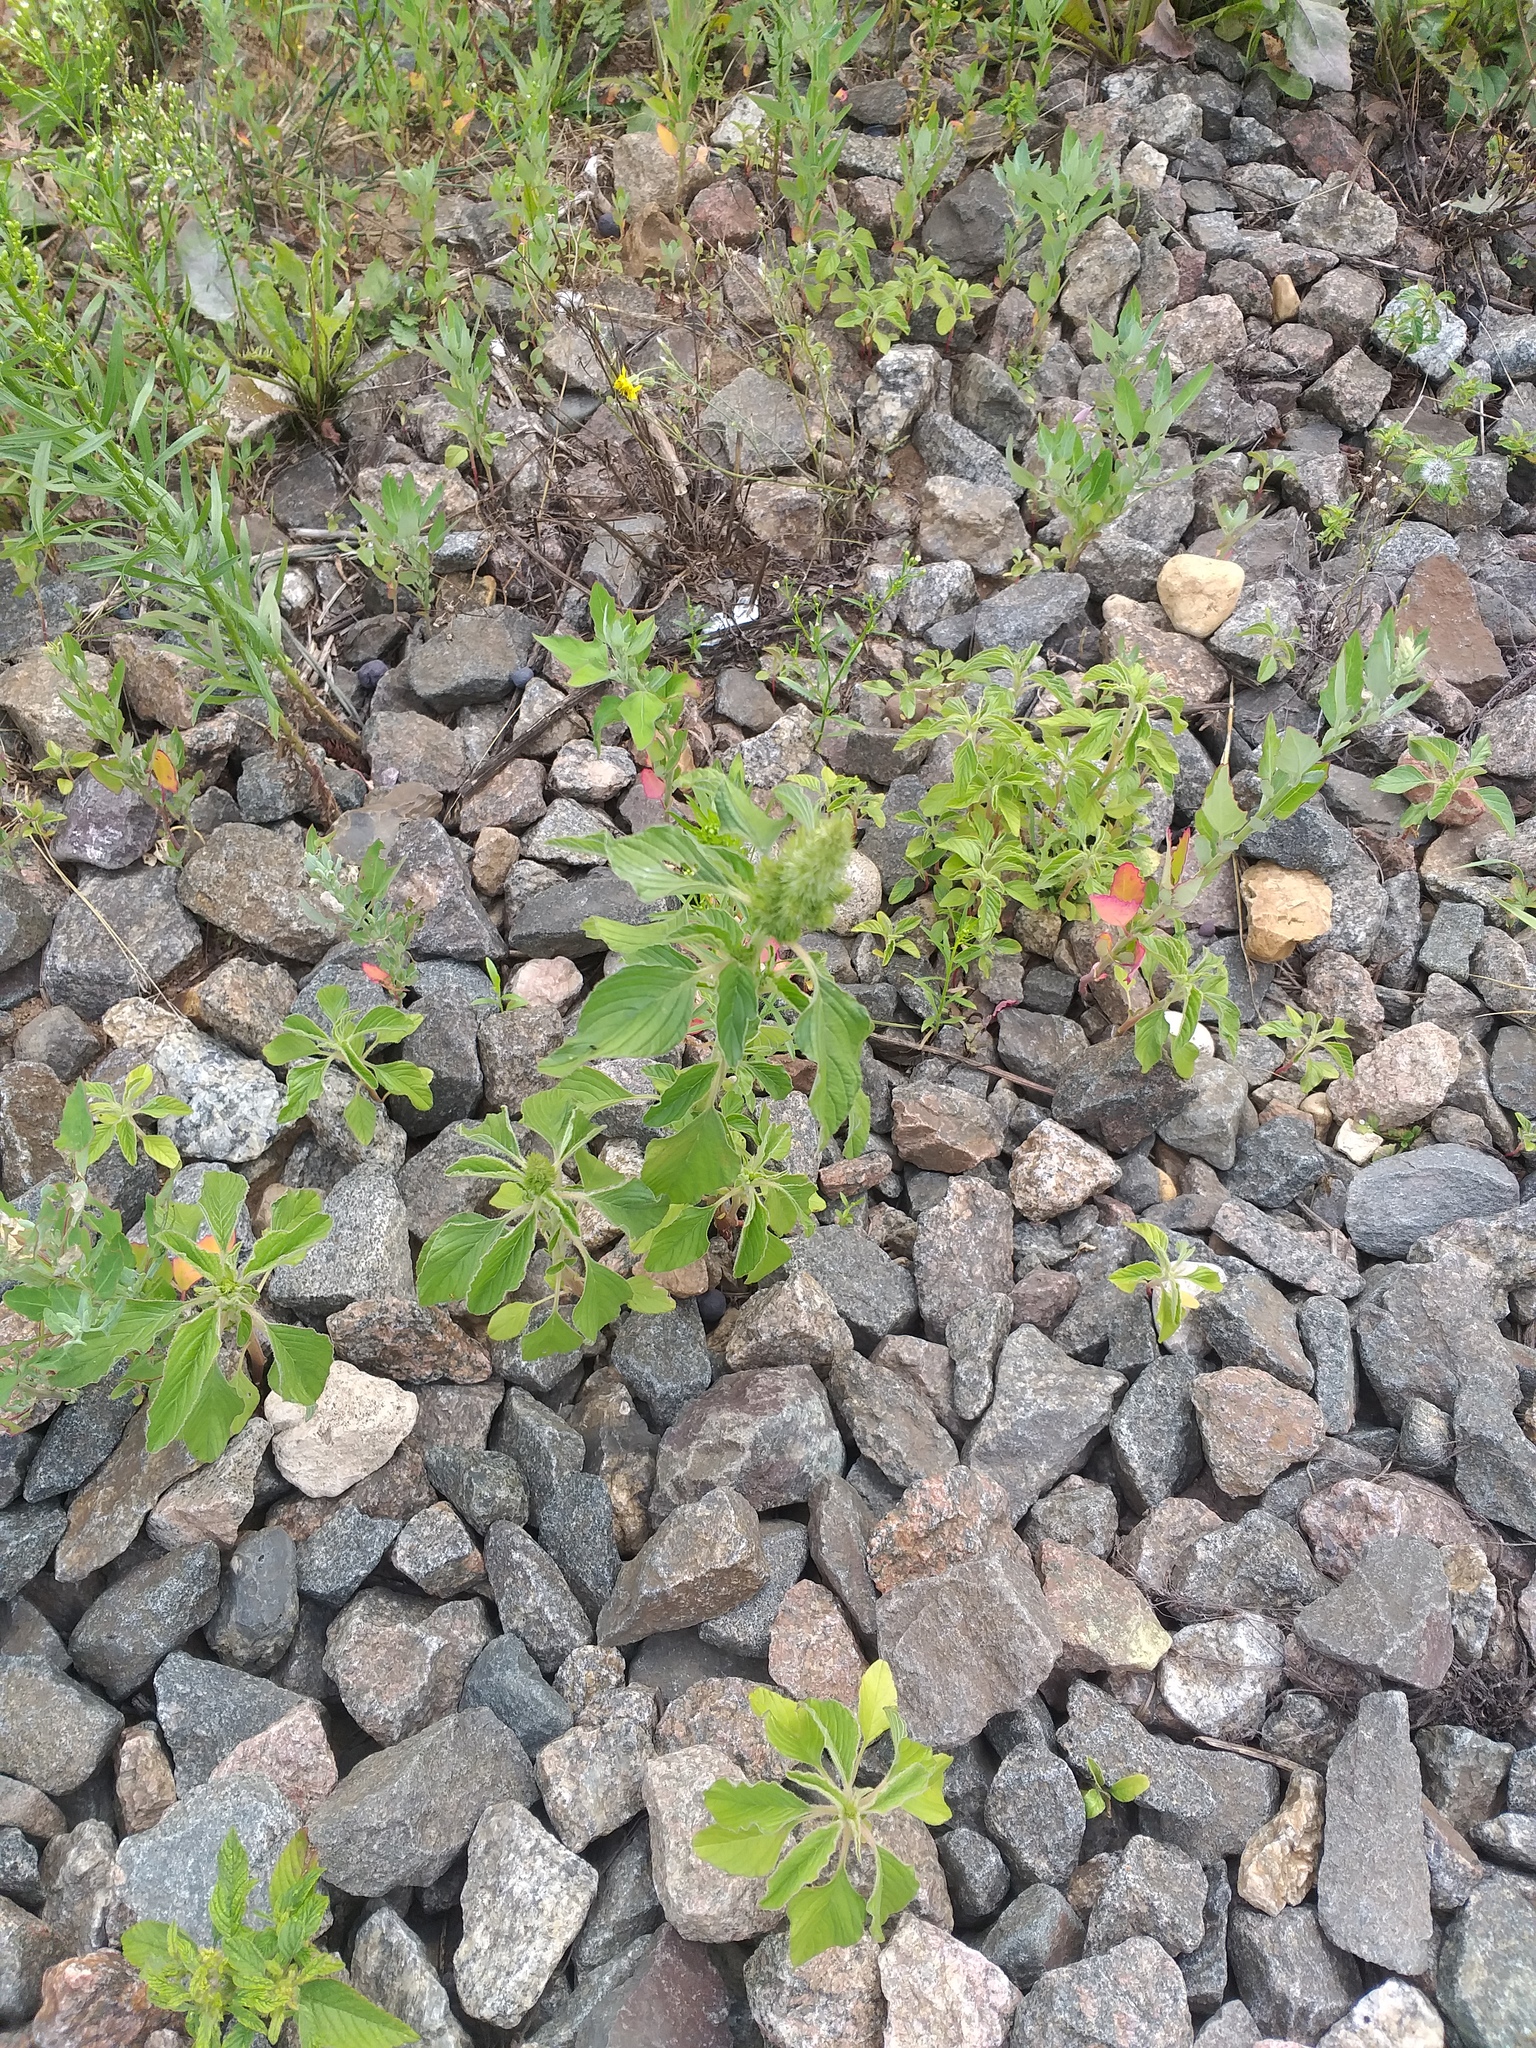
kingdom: Plantae
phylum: Tracheophyta
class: Magnoliopsida
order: Caryophyllales
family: Amaranthaceae
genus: Amaranthus
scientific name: Amaranthus retroflexus
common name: Redroot amaranth
